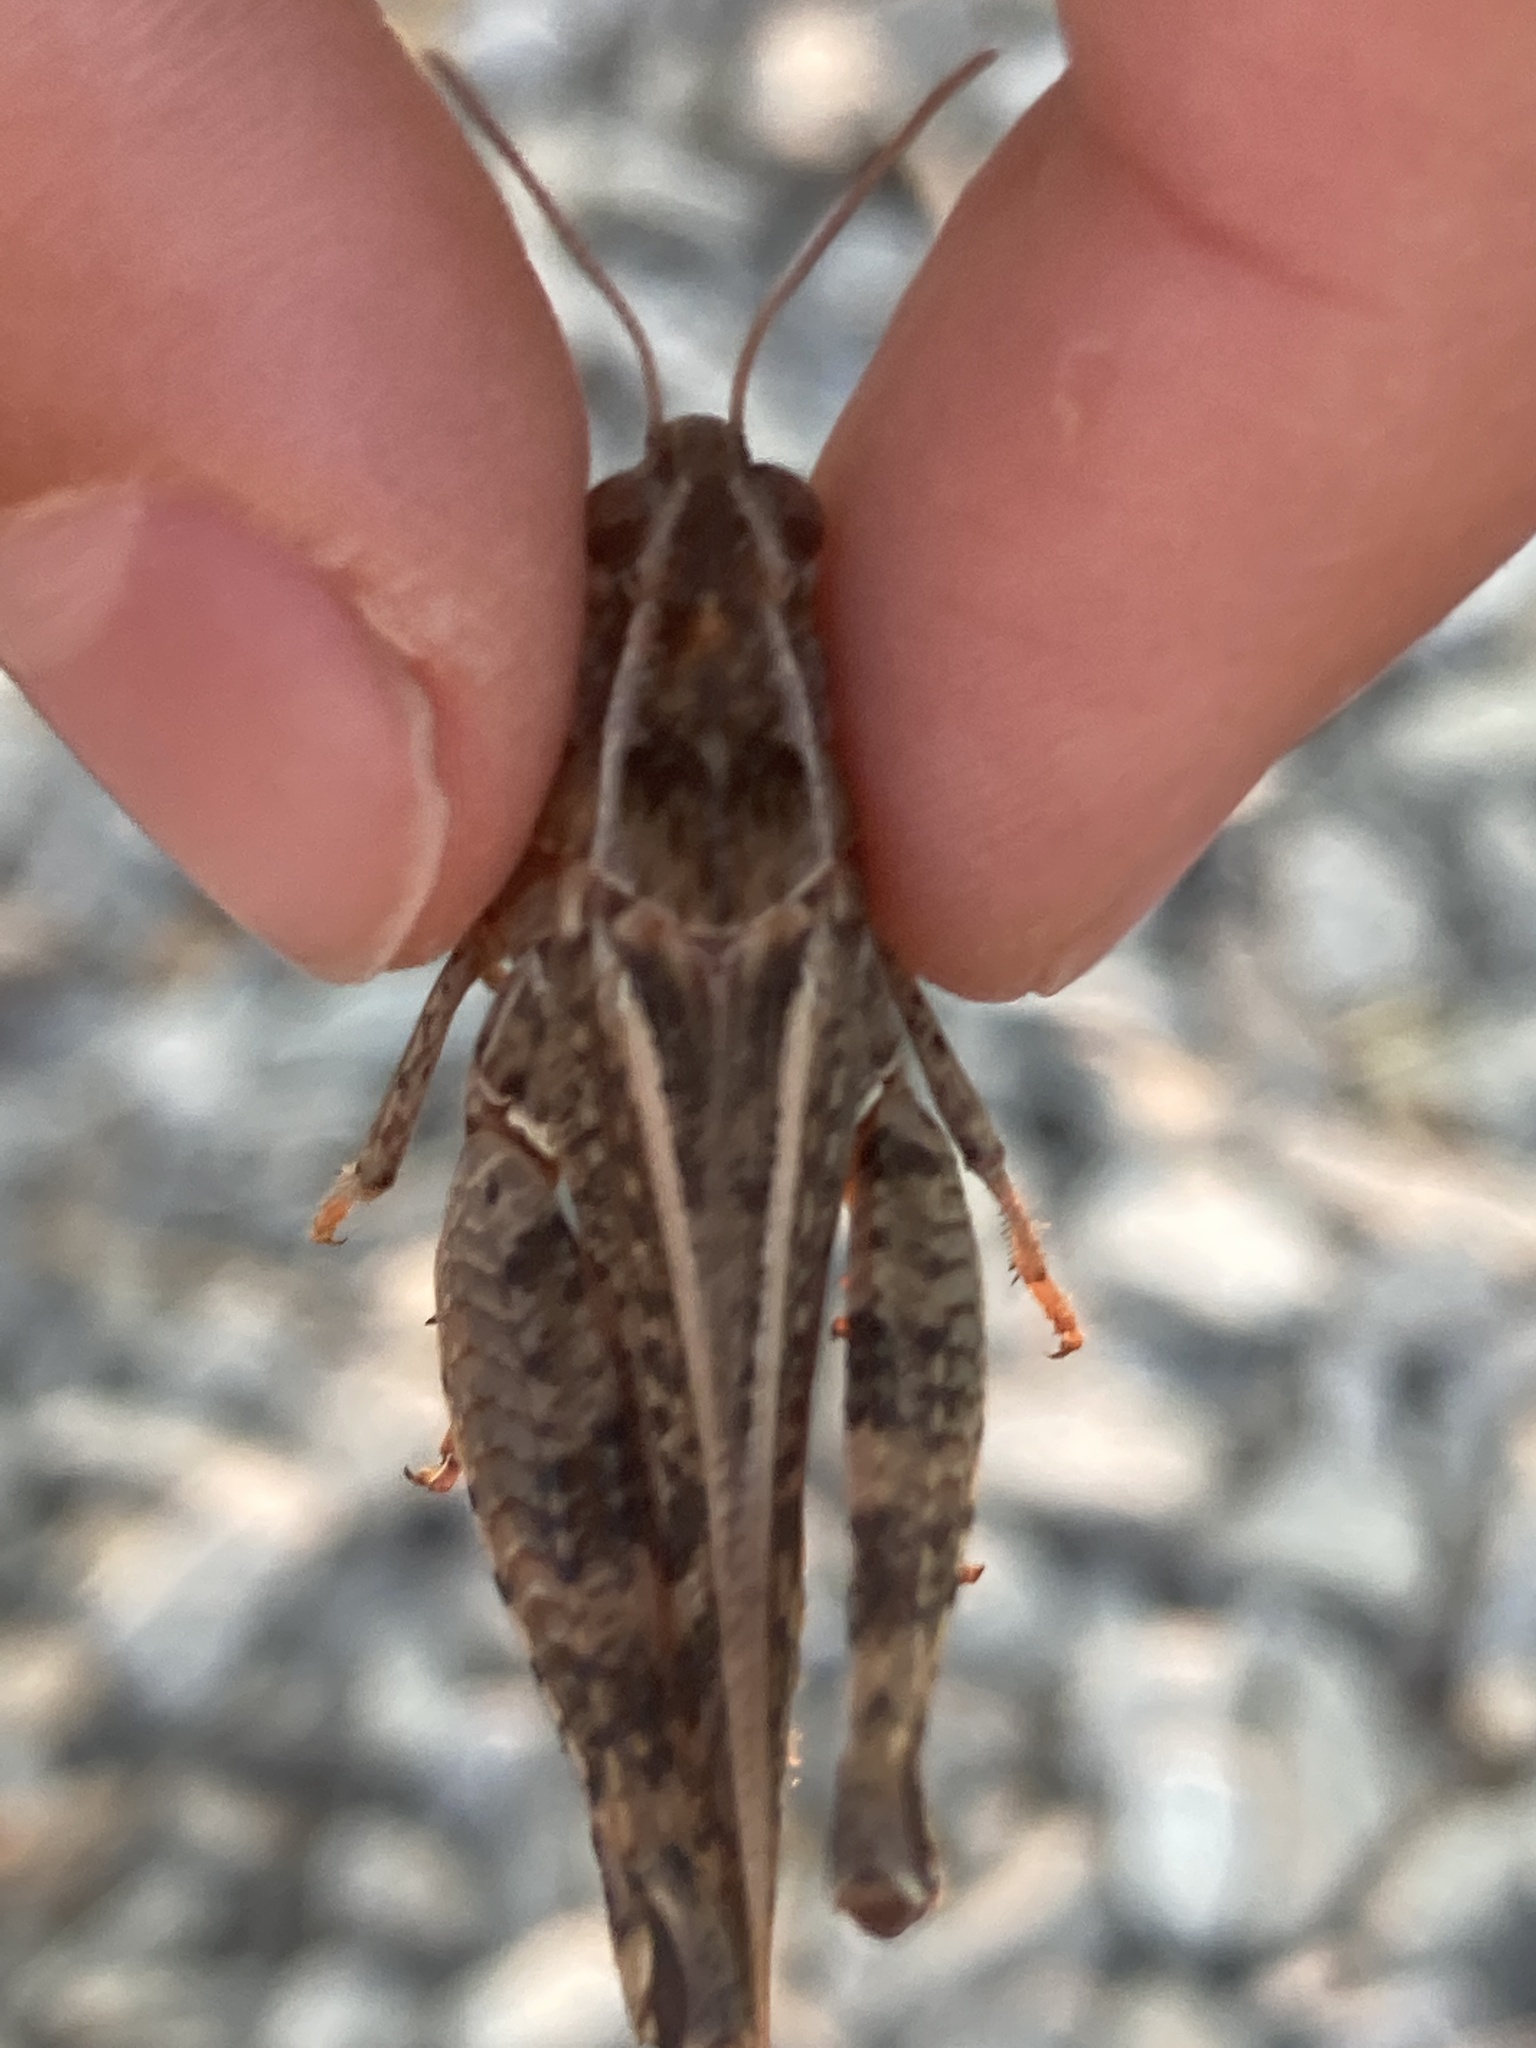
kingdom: Animalia
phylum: Arthropoda
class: Insecta
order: Orthoptera
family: Acrididae
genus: Calliptamus
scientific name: Calliptamus italicus
